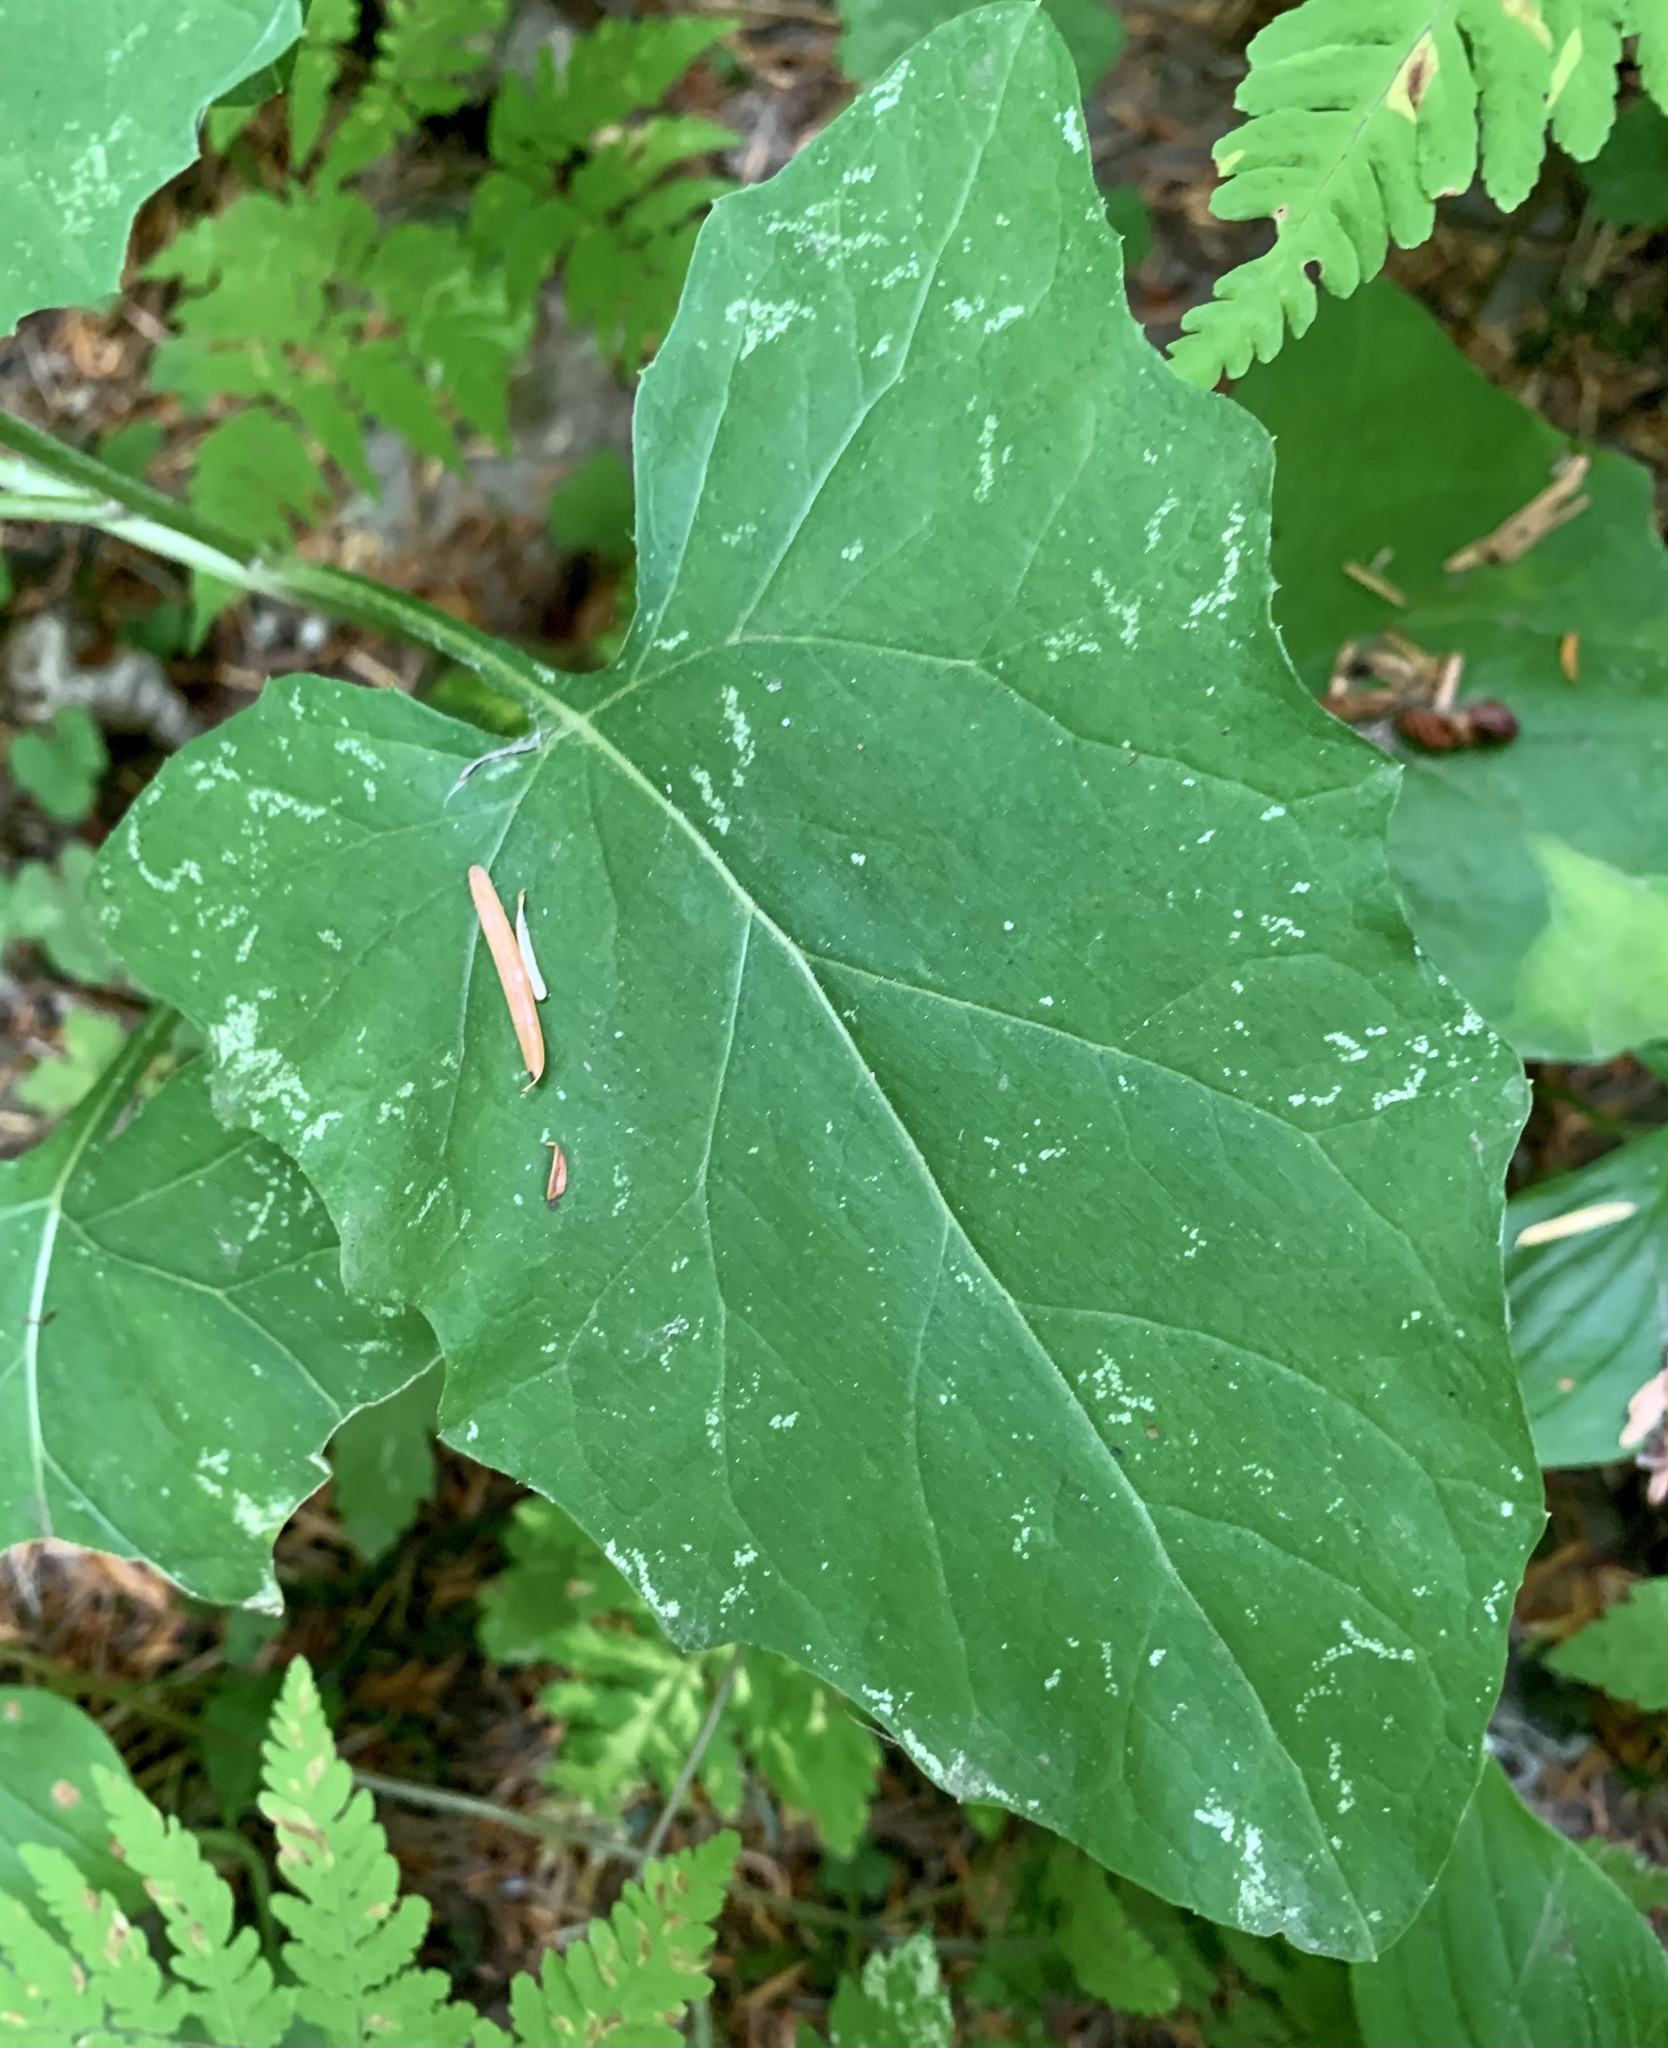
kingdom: Plantae
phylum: Tracheophyta
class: Magnoliopsida
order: Asterales
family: Asteraceae
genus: Adenocaulon
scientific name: Adenocaulon bicolor
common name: Trailplant
